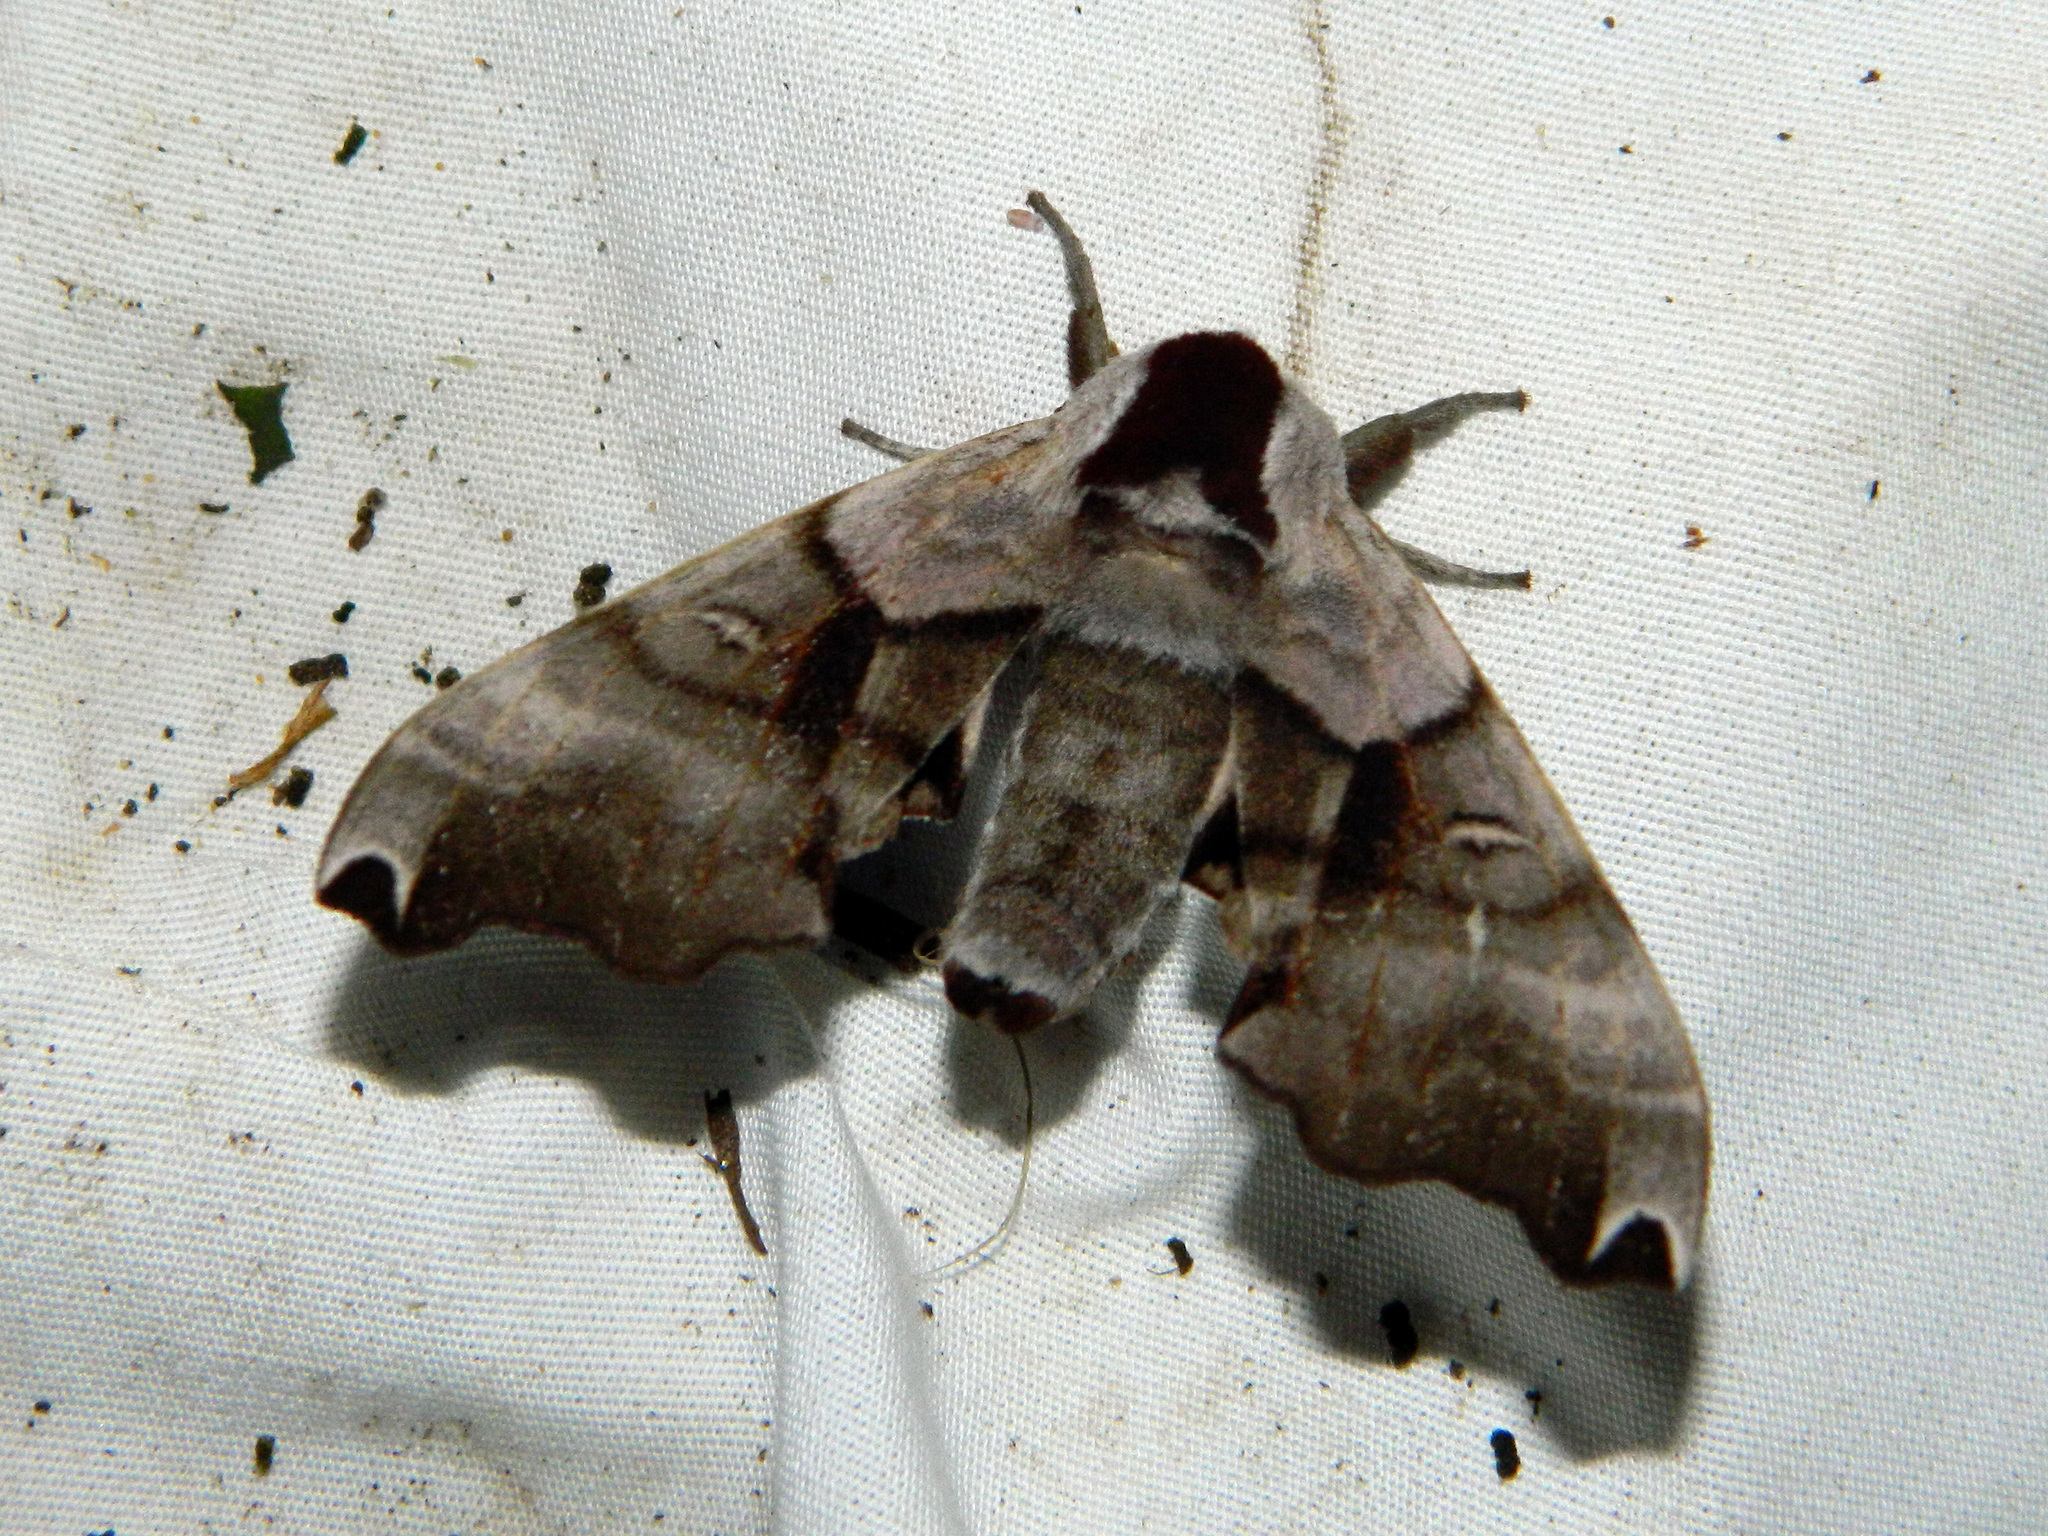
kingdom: Animalia
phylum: Arthropoda
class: Insecta
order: Lepidoptera
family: Sphingidae
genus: Smerinthus
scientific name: Smerinthus jamaicensis
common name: Twin spotted sphinx
